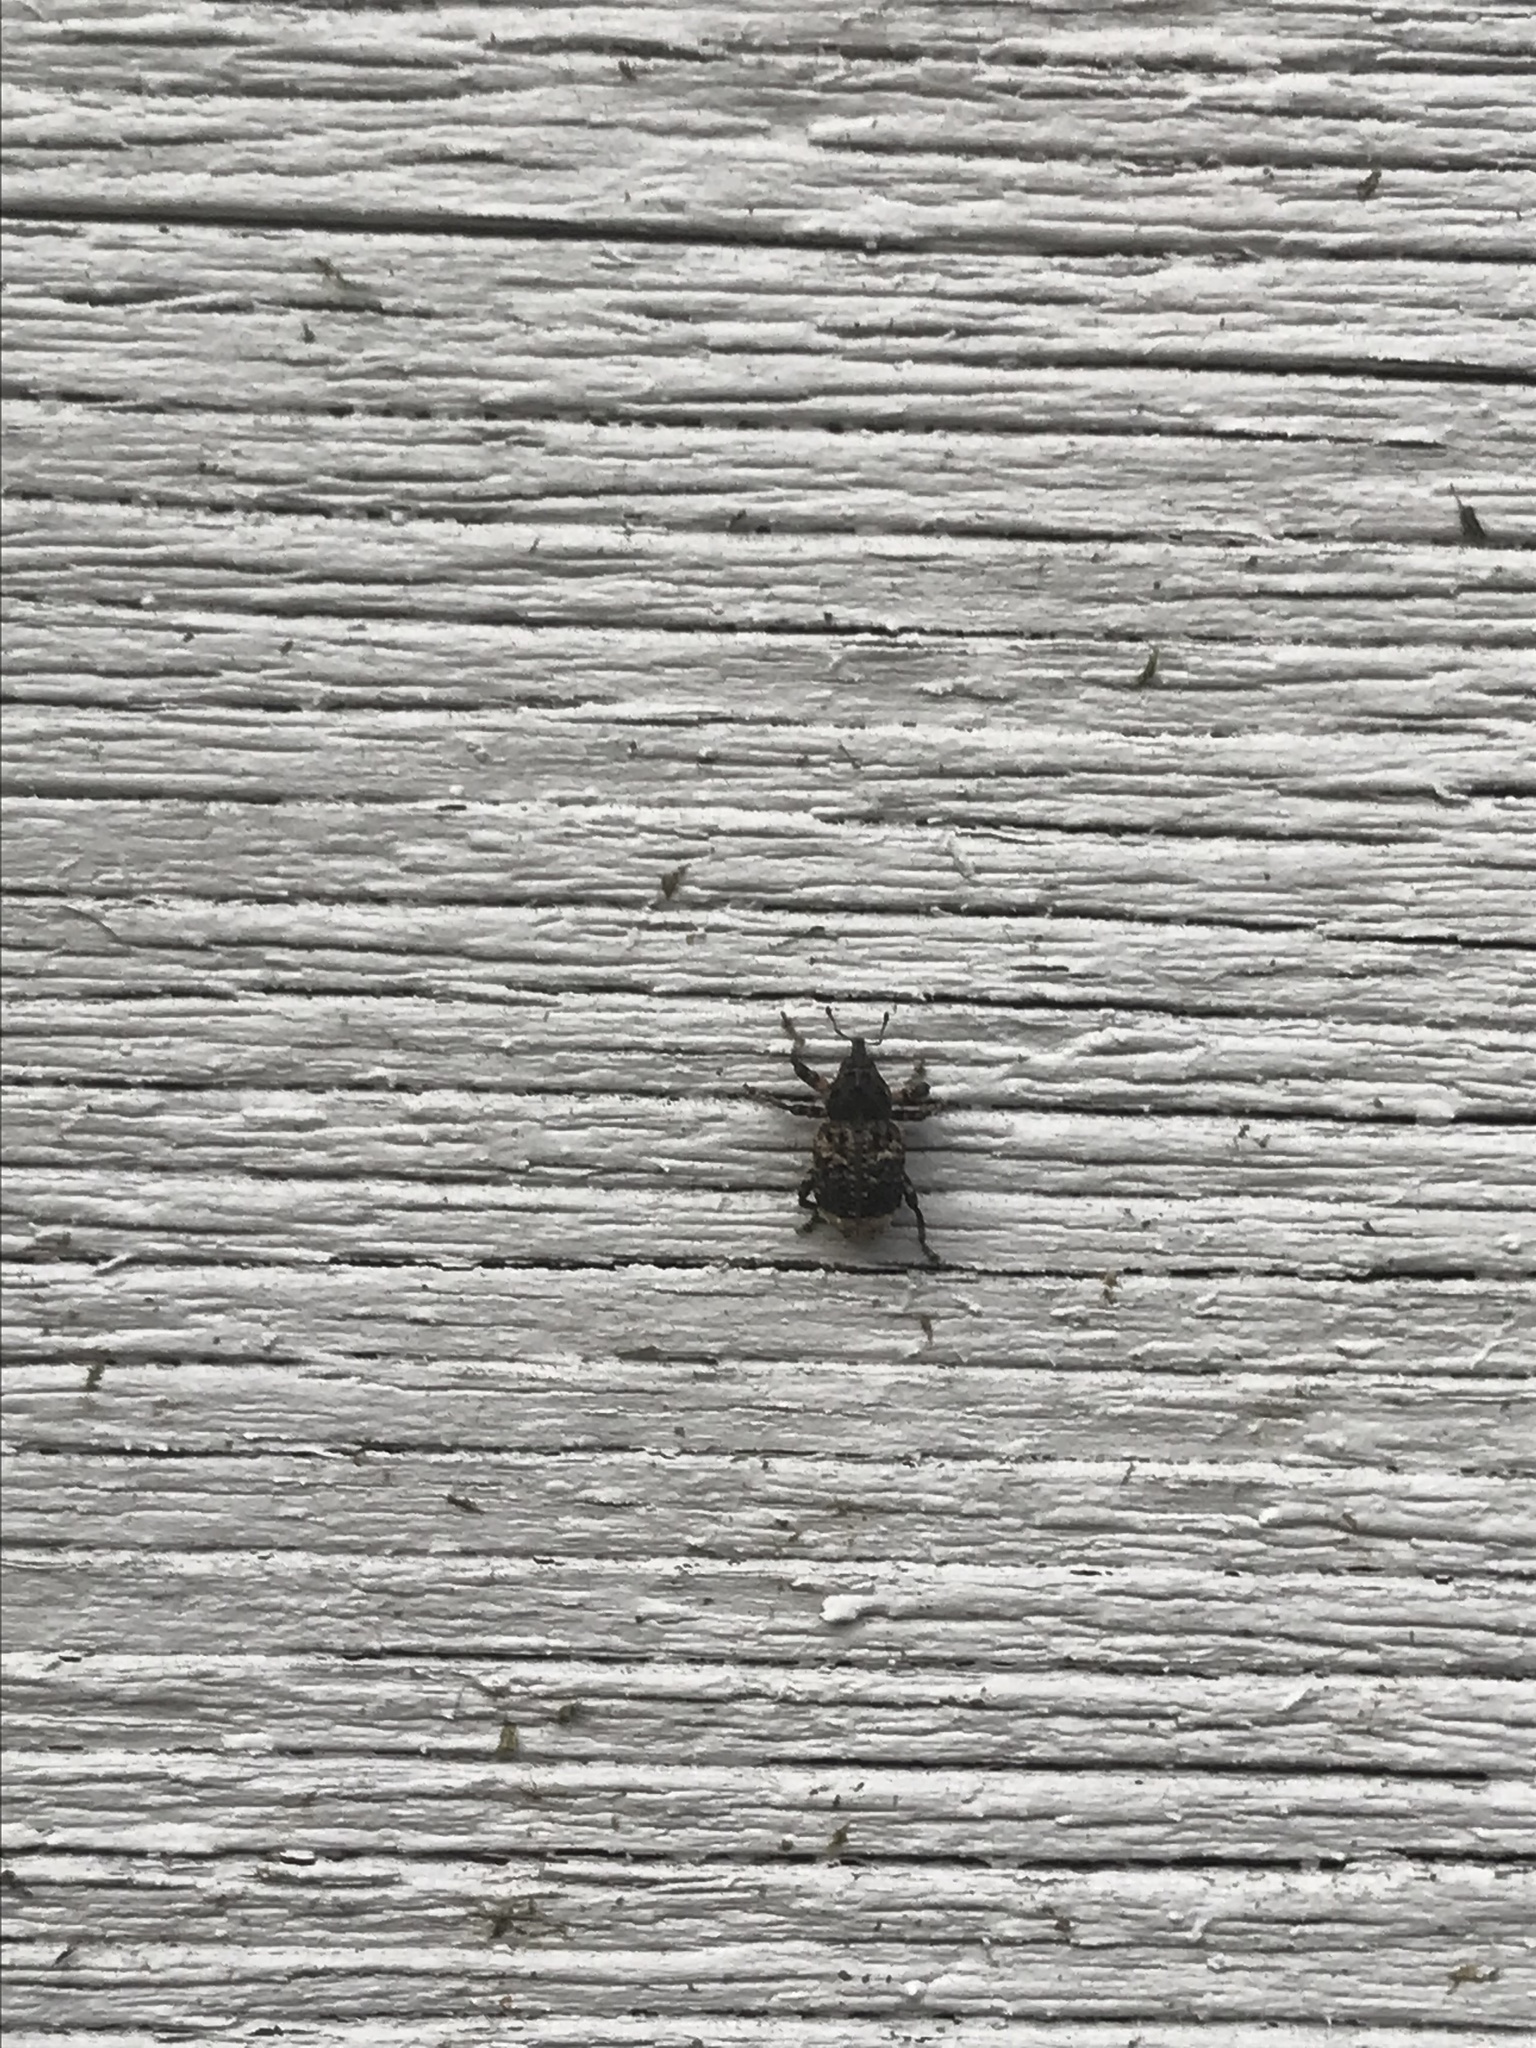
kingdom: Animalia
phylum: Arthropoda
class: Insecta
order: Coleoptera
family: Curculionidae
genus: Cryptorhynchus
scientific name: Cryptorhynchus lapathi
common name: Weevil
